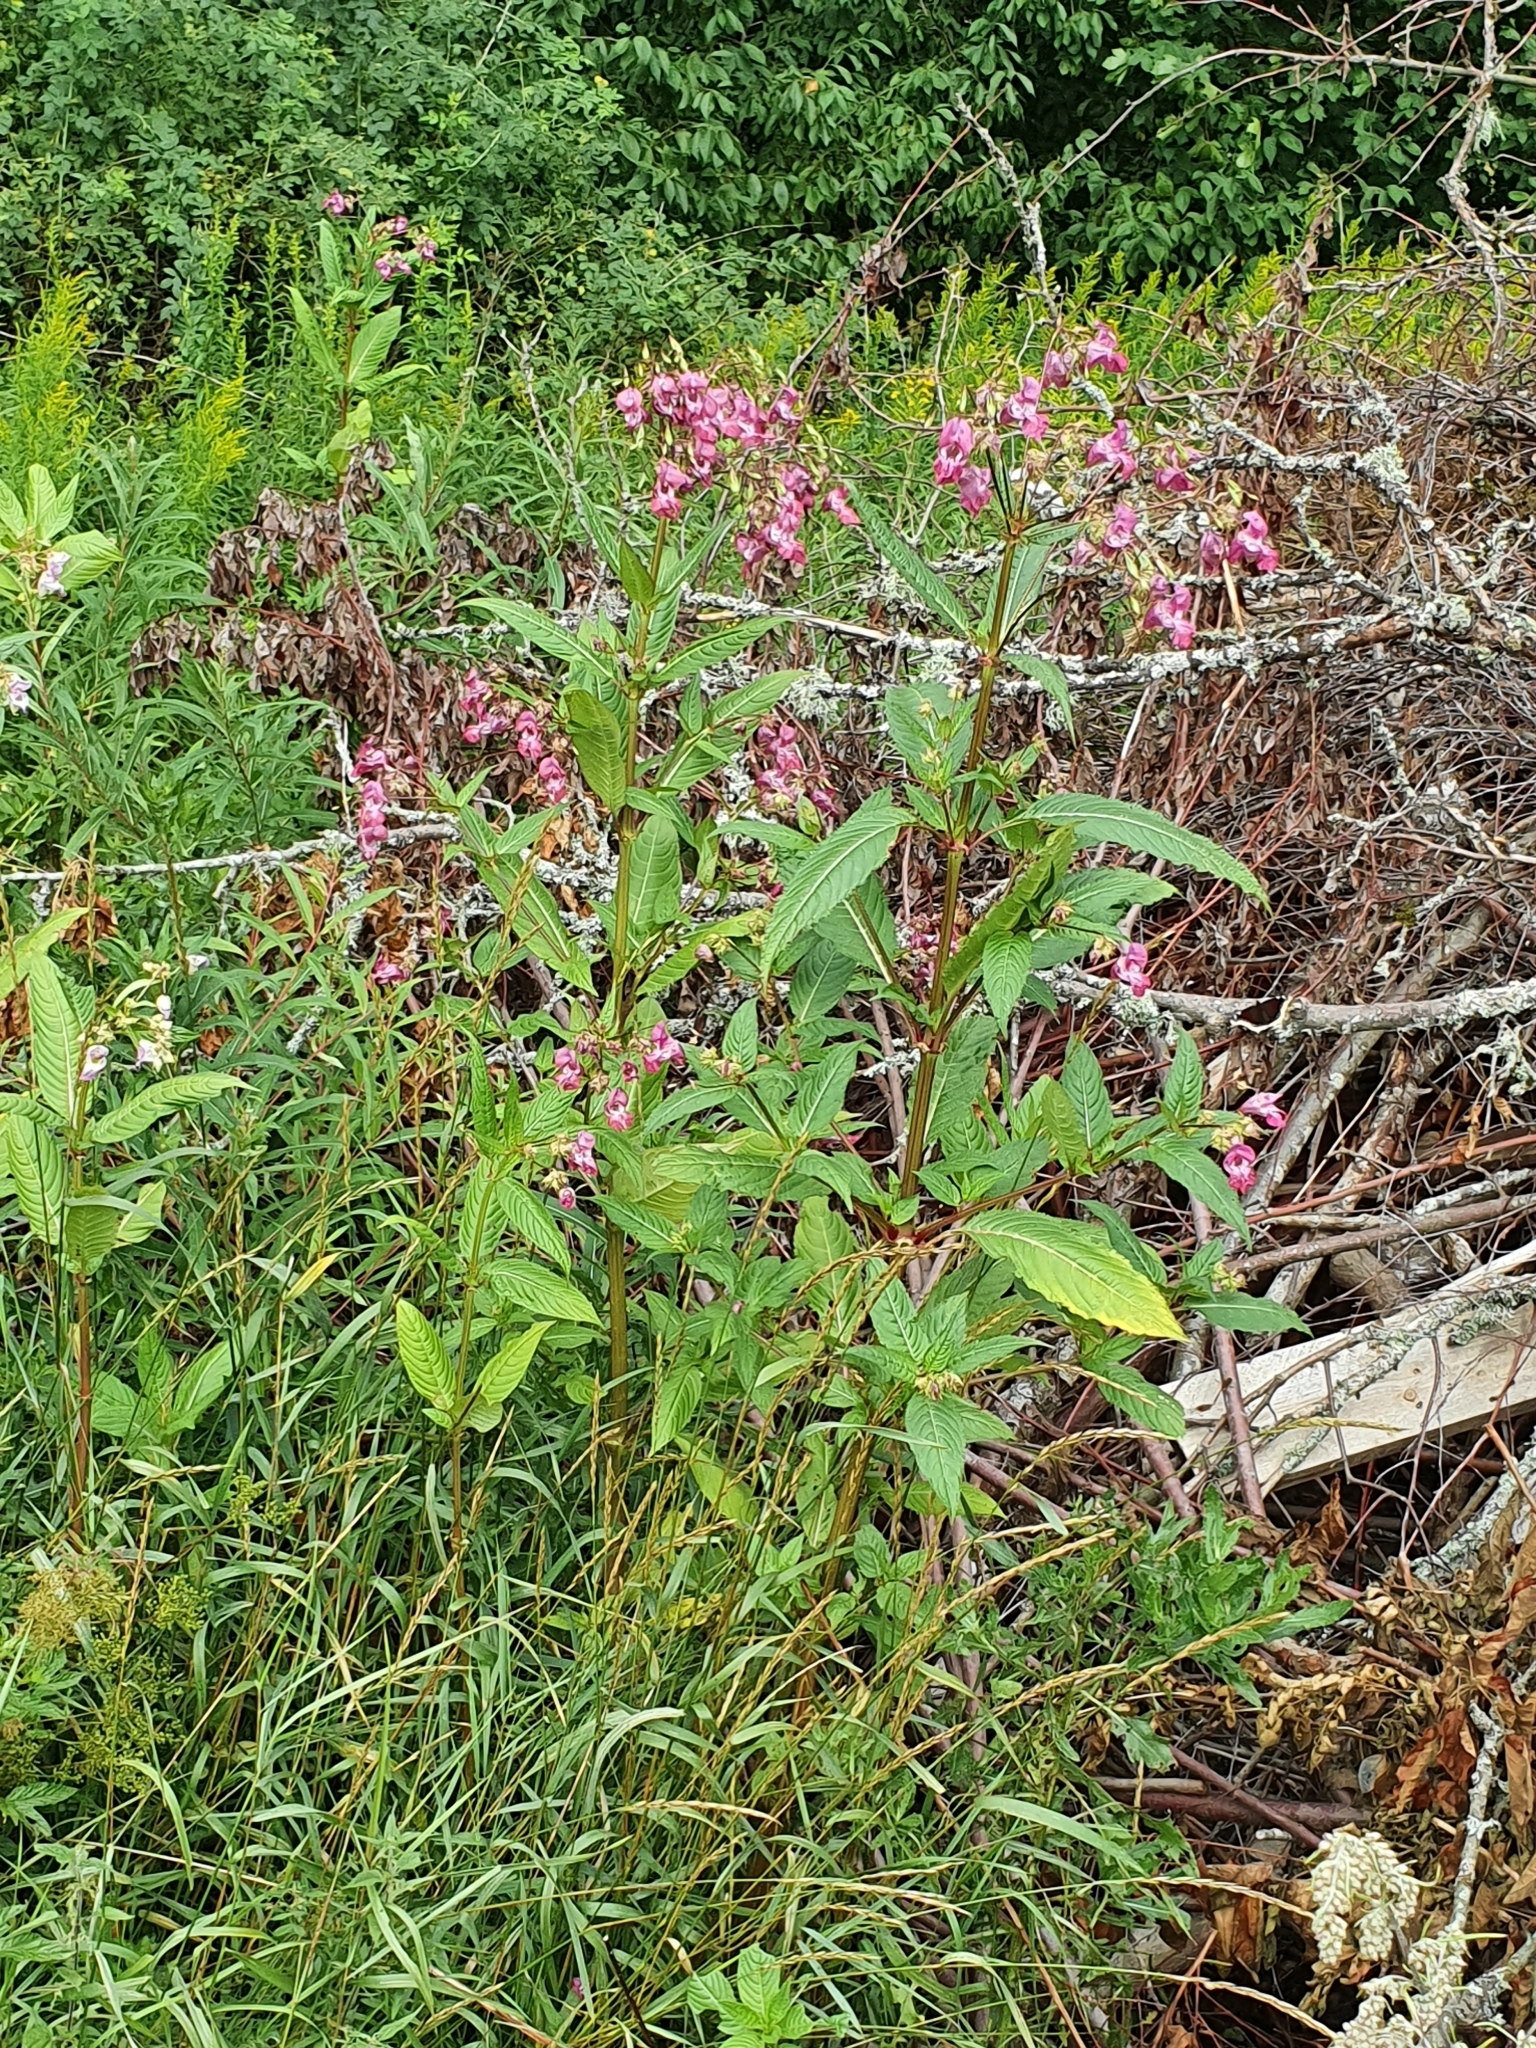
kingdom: Plantae
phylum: Tracheophyta
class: Magnoliopsida
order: Ericales
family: Balsaminaceae
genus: Impatiens
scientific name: Impatiens glandulifera
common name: Himalayan balsam
